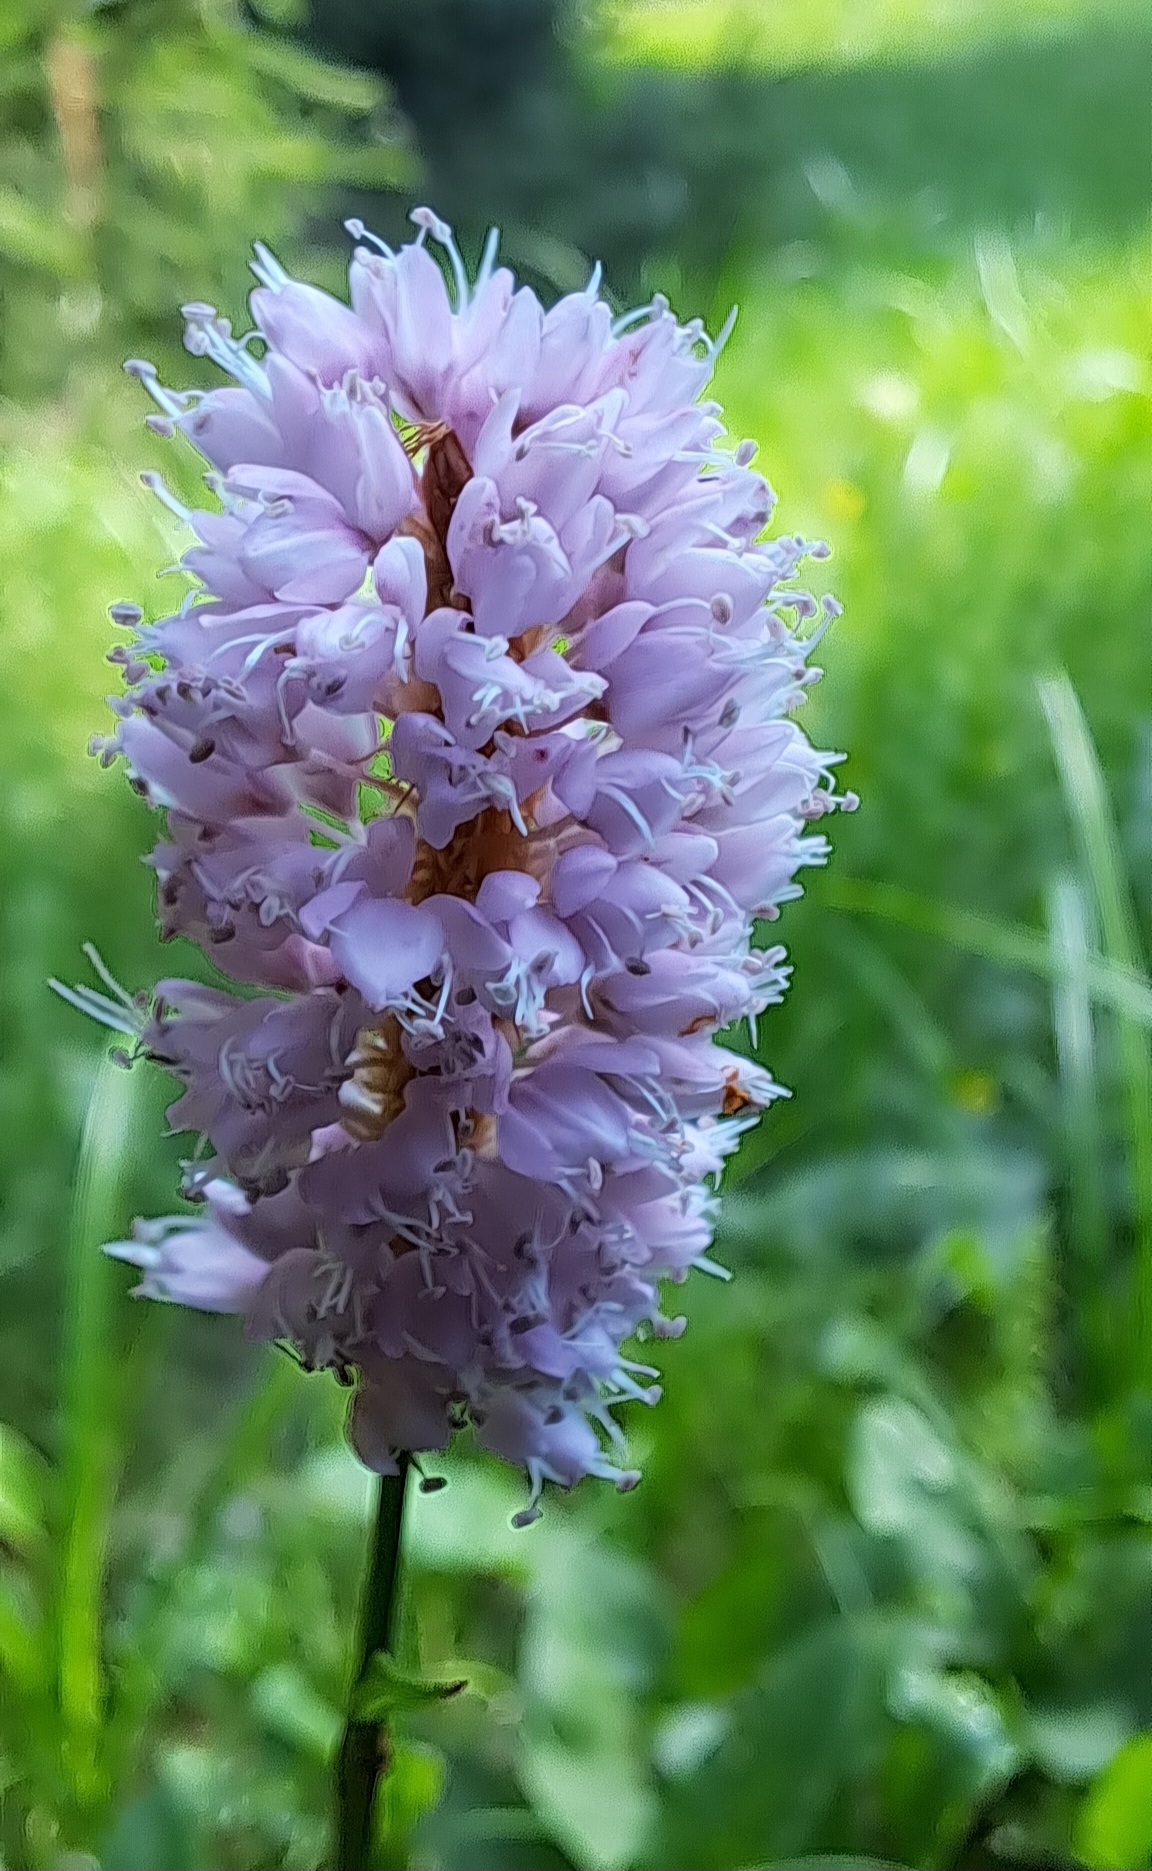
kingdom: Plantae
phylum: Tracheophyta
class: Magnoliopsida
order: Caryophyllales
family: Polygonaceae
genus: Bistorta
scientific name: Bistorta officinalis
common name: Common bistort
